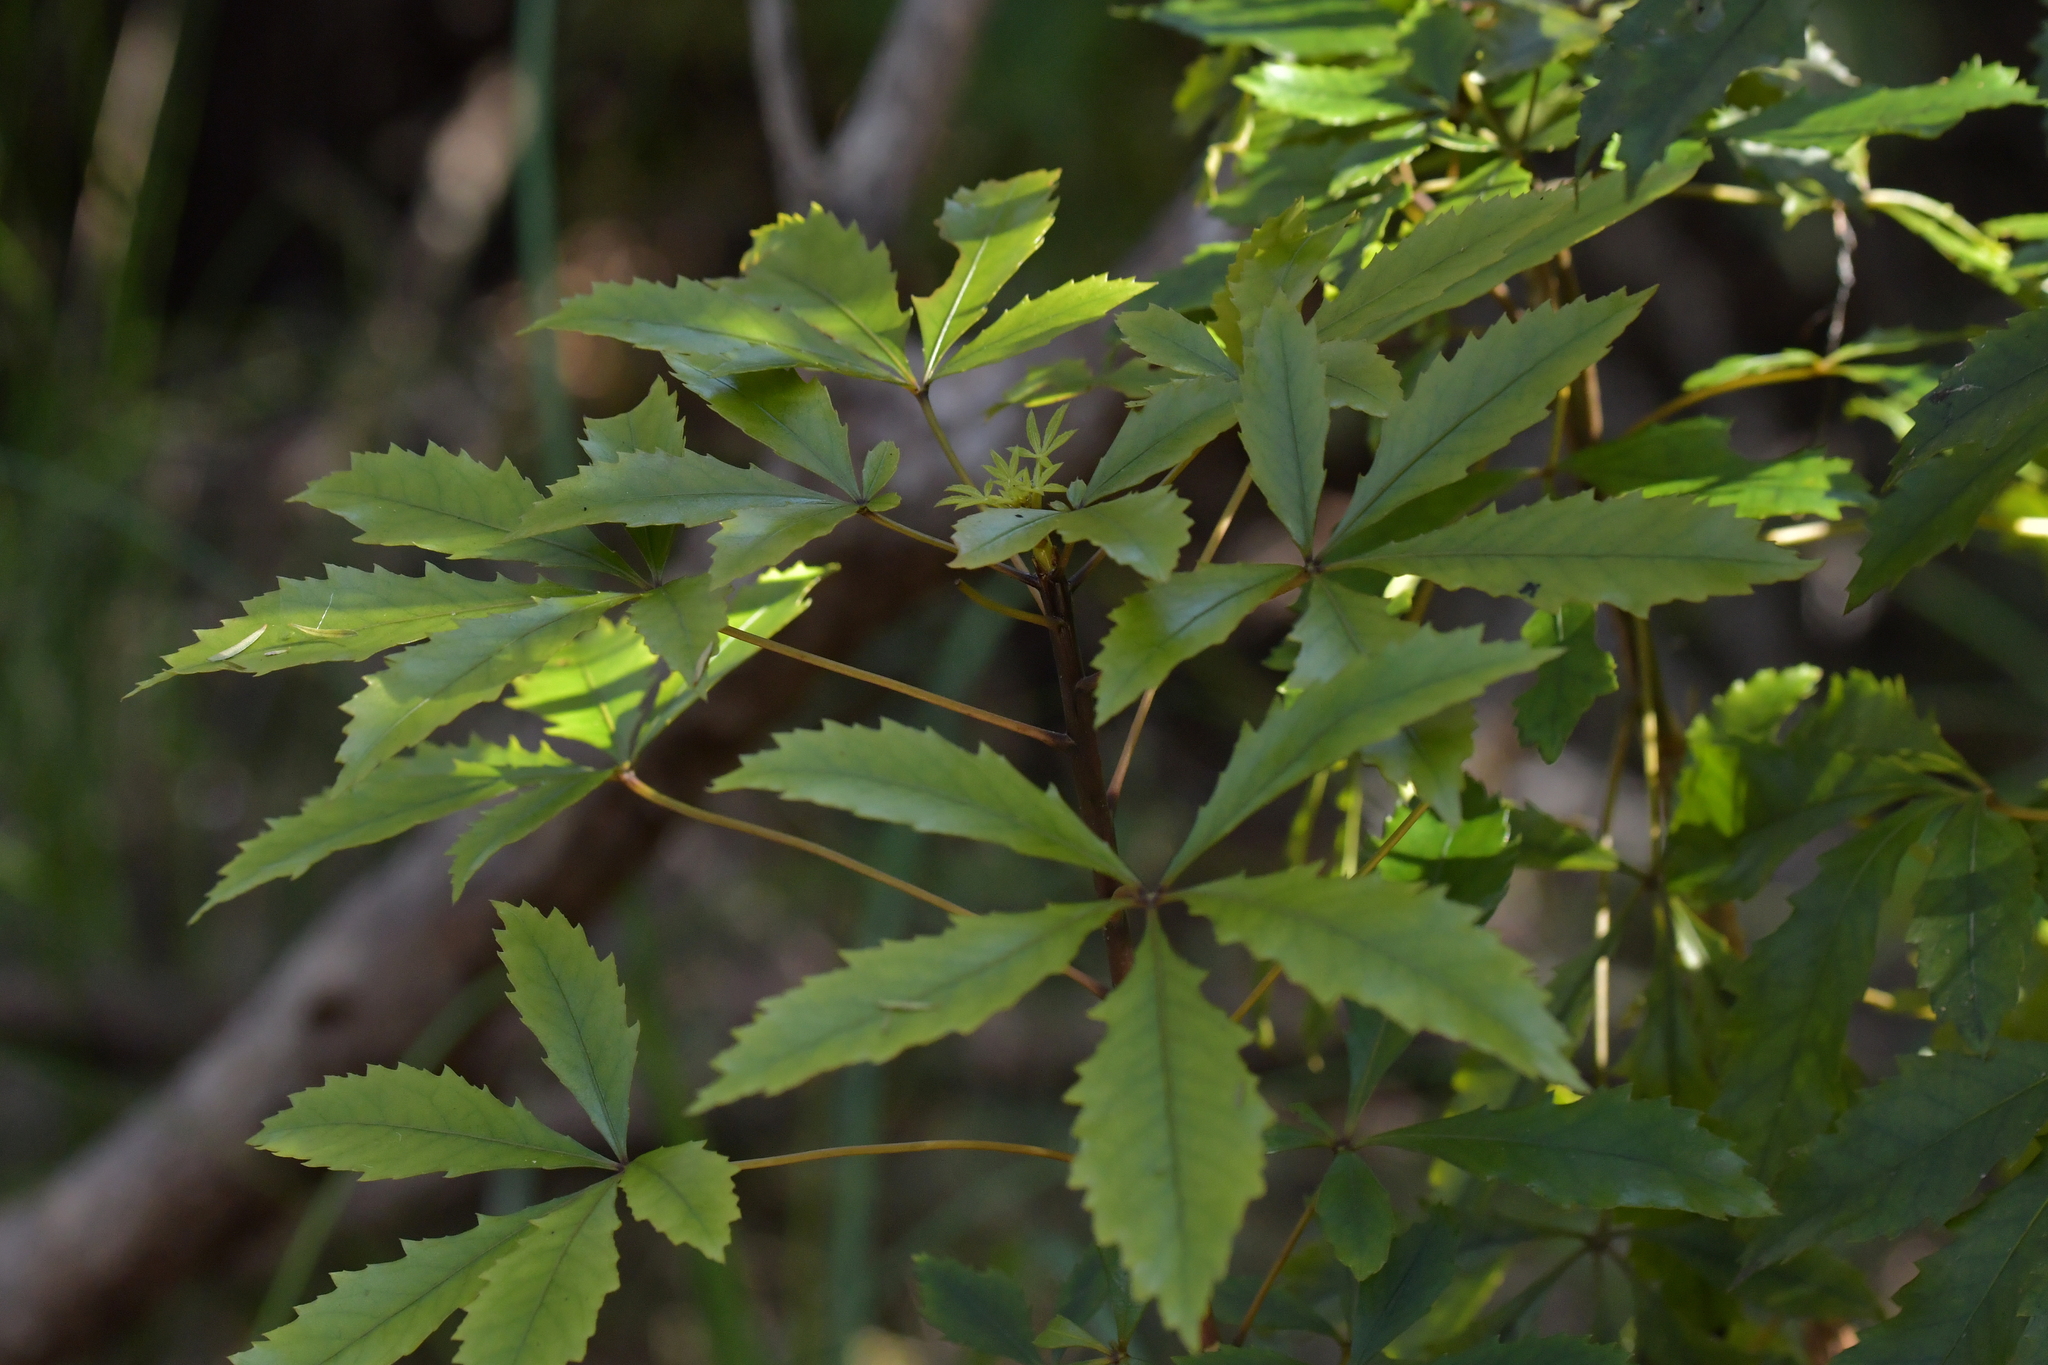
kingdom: Plantae
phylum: Tracheophyta
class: Magnoliopsida
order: Apiales
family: Araliaceae
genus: Pseudopanax
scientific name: Pseudopanax discolor
